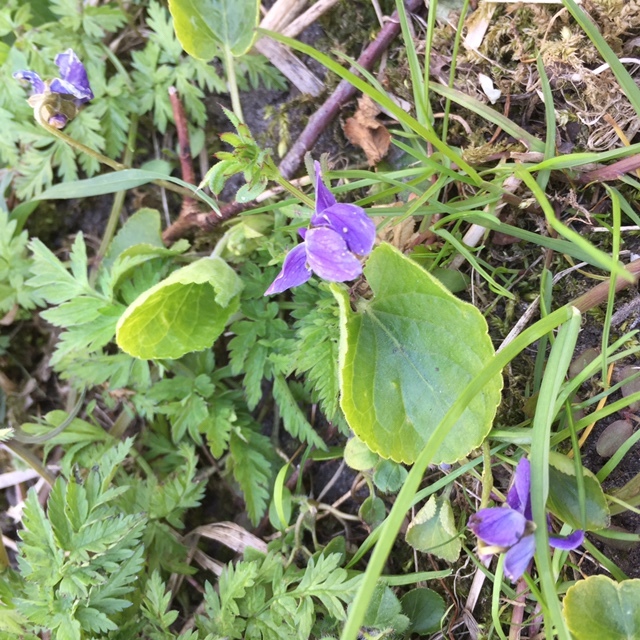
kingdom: Plantae
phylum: Tracheophyta
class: Magnoliopsida
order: Malpighiales
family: Violaceae
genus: Viola
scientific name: Viola odorata
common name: Sweet violet
